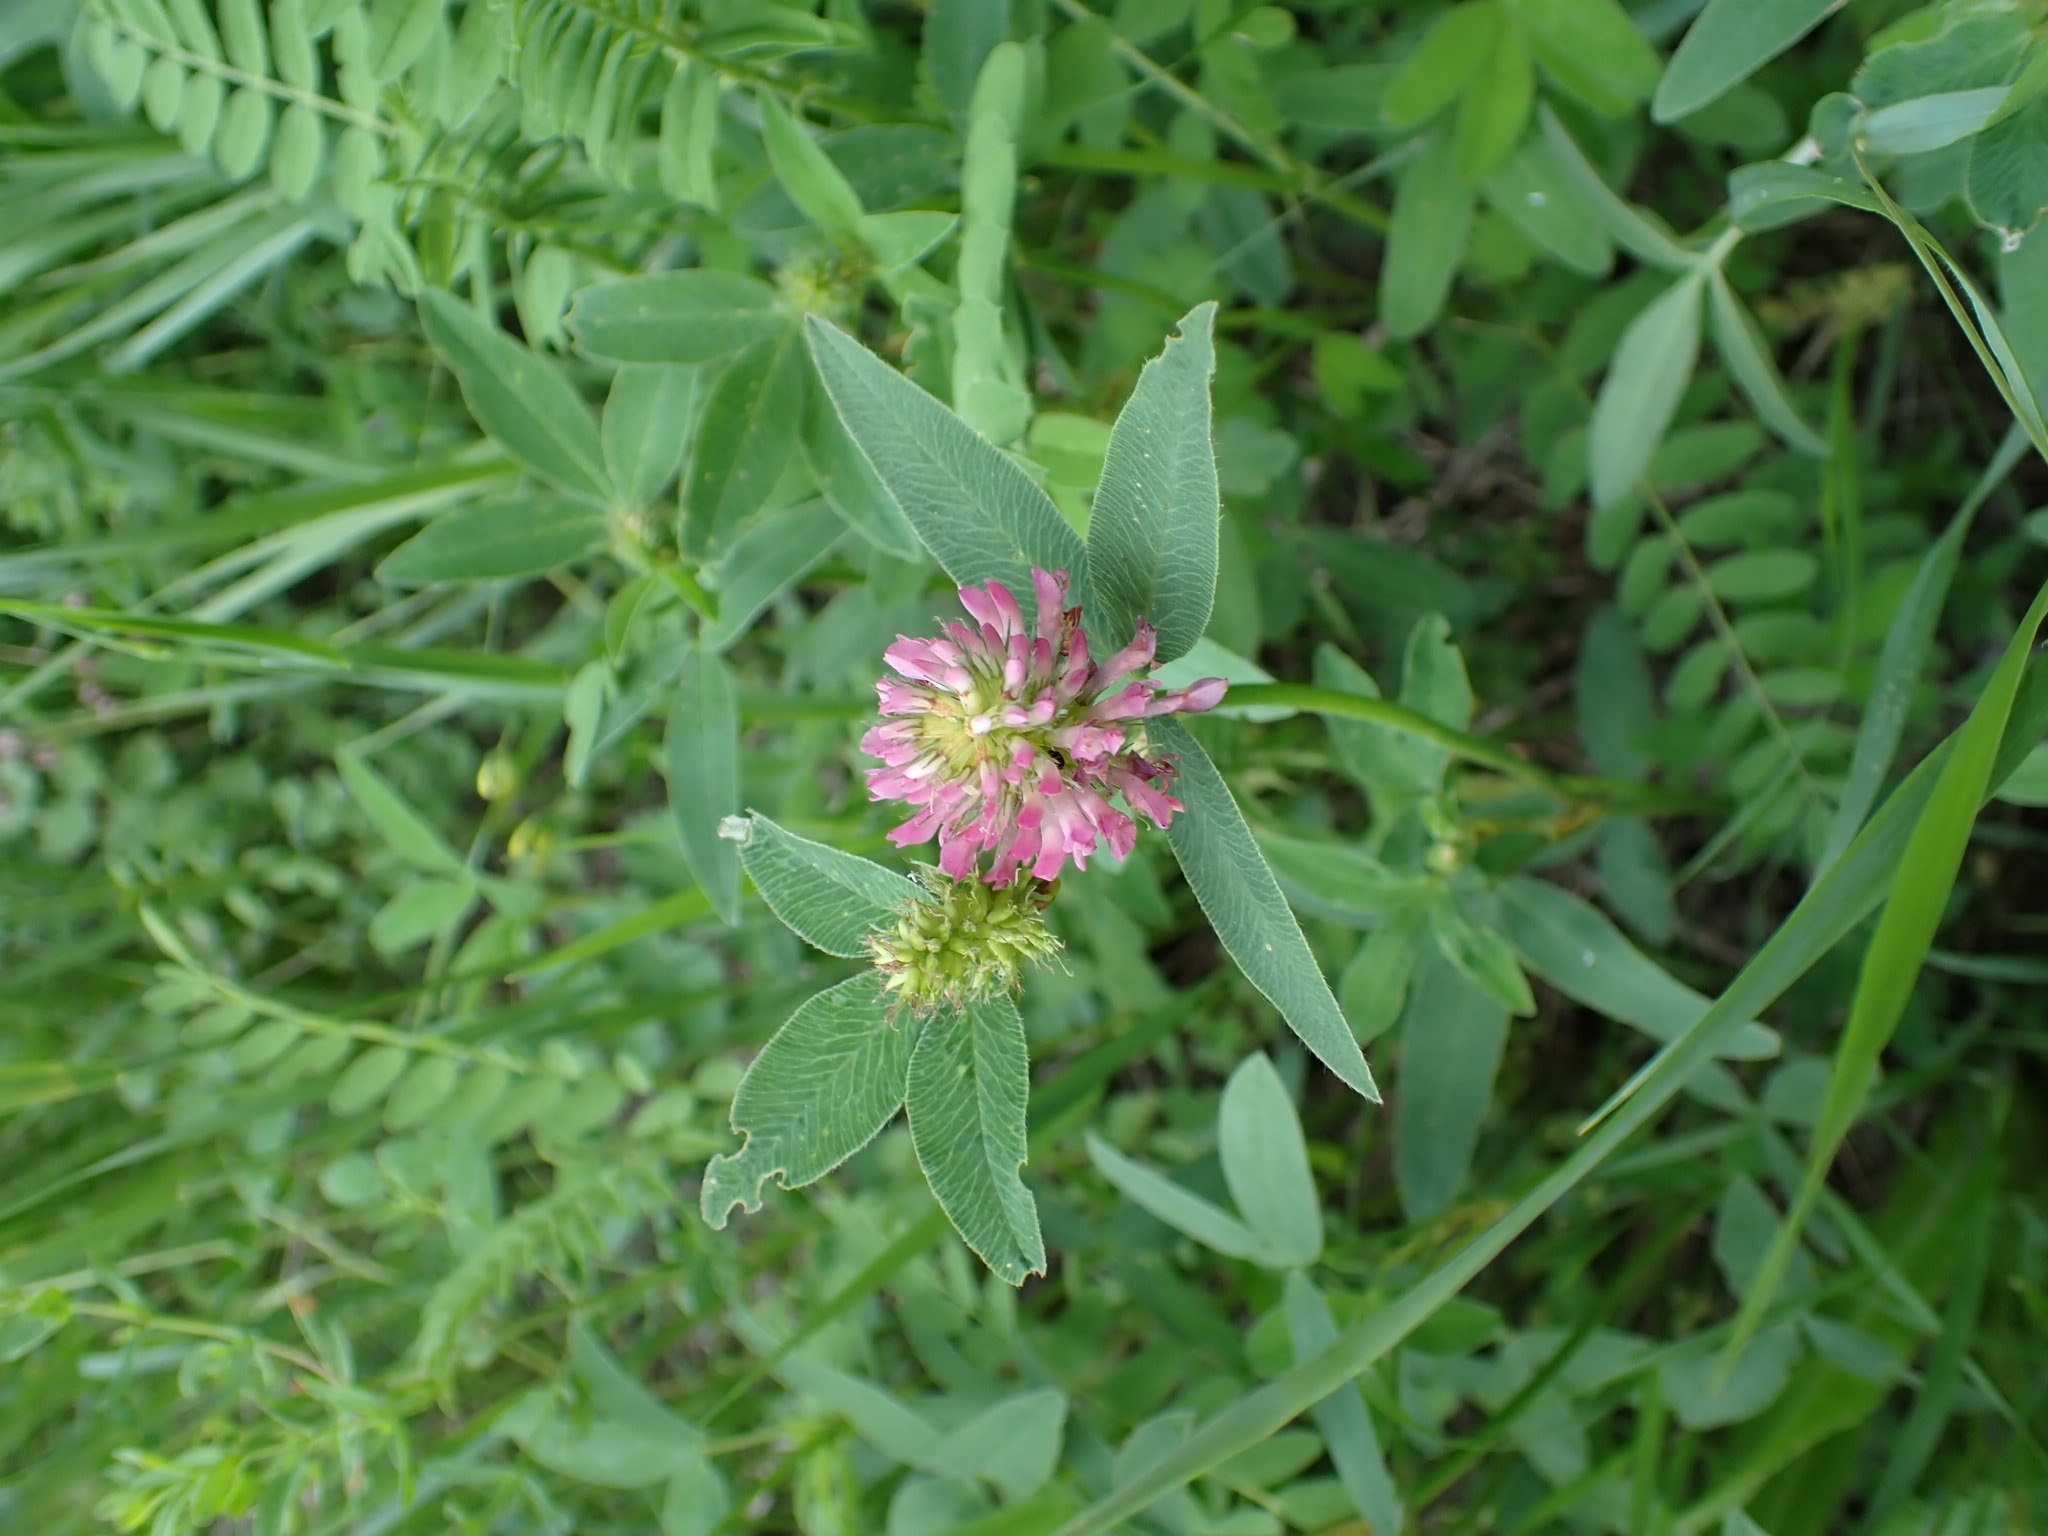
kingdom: Plantae
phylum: Tracheophyta
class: Magnoliopsida
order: Fabales
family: Fabaceae
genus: Trifolium
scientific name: Trifolium medium
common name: Zigzag clover
